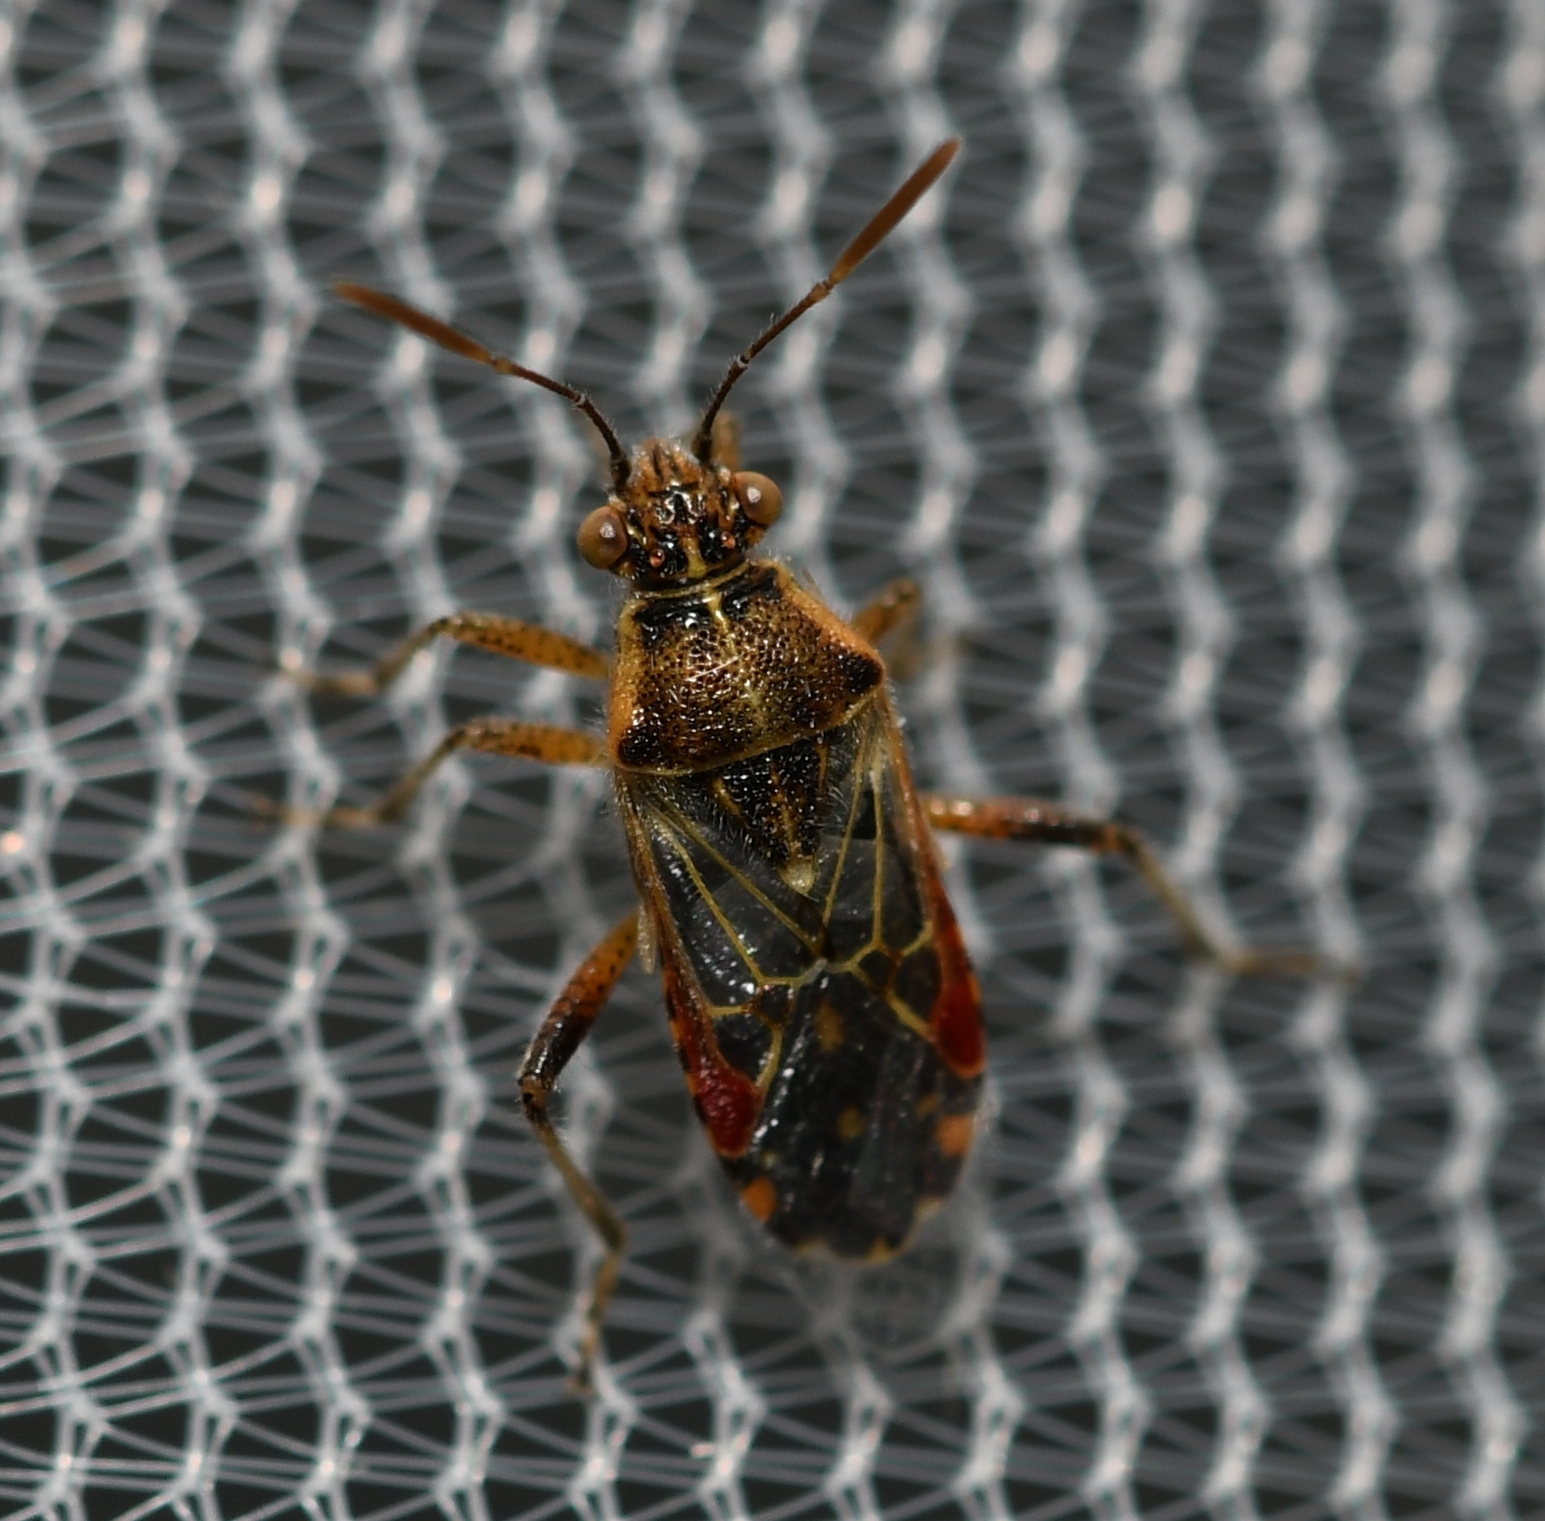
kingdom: Animalia
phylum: Arthropoda
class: Insecta
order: Hemiptera
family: Rhopalidae
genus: Liorhyssus
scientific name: Liorhyssus hyalinus
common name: Scentless plant bug
